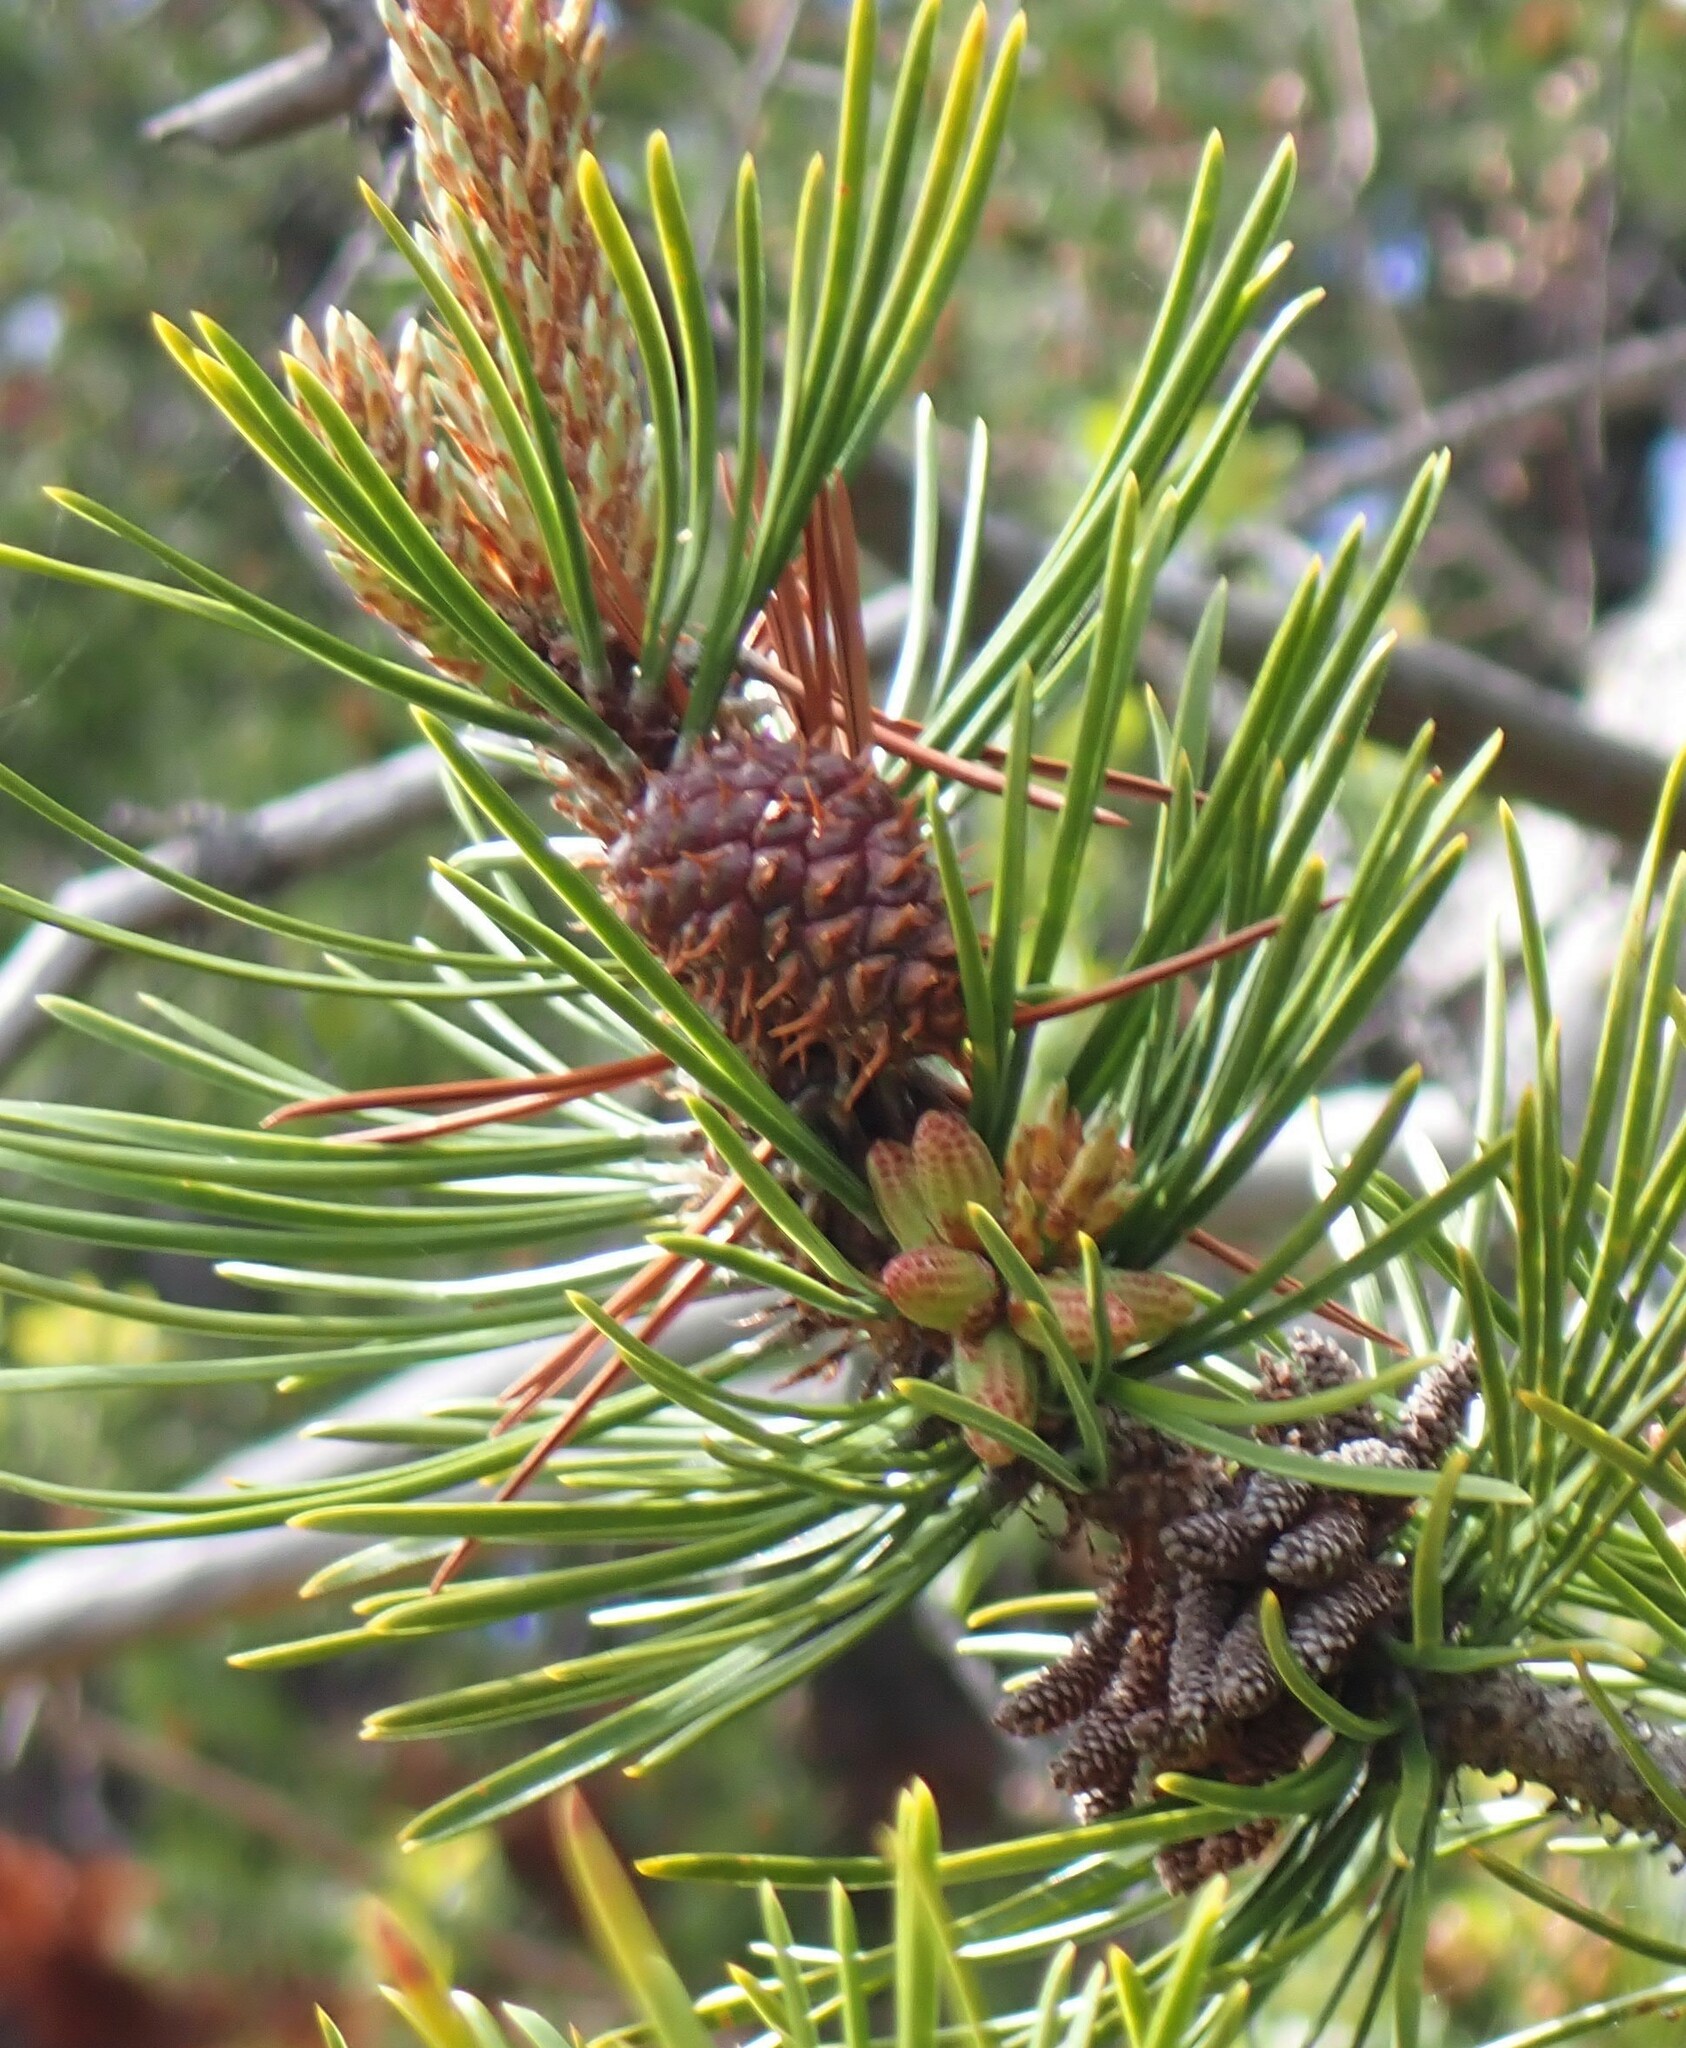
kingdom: Plantae
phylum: Tracheophyta
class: Pinopsida
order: Pinales
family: Pinaceae
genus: Pinus
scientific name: Pinus contorta
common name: Lodgepole pine
